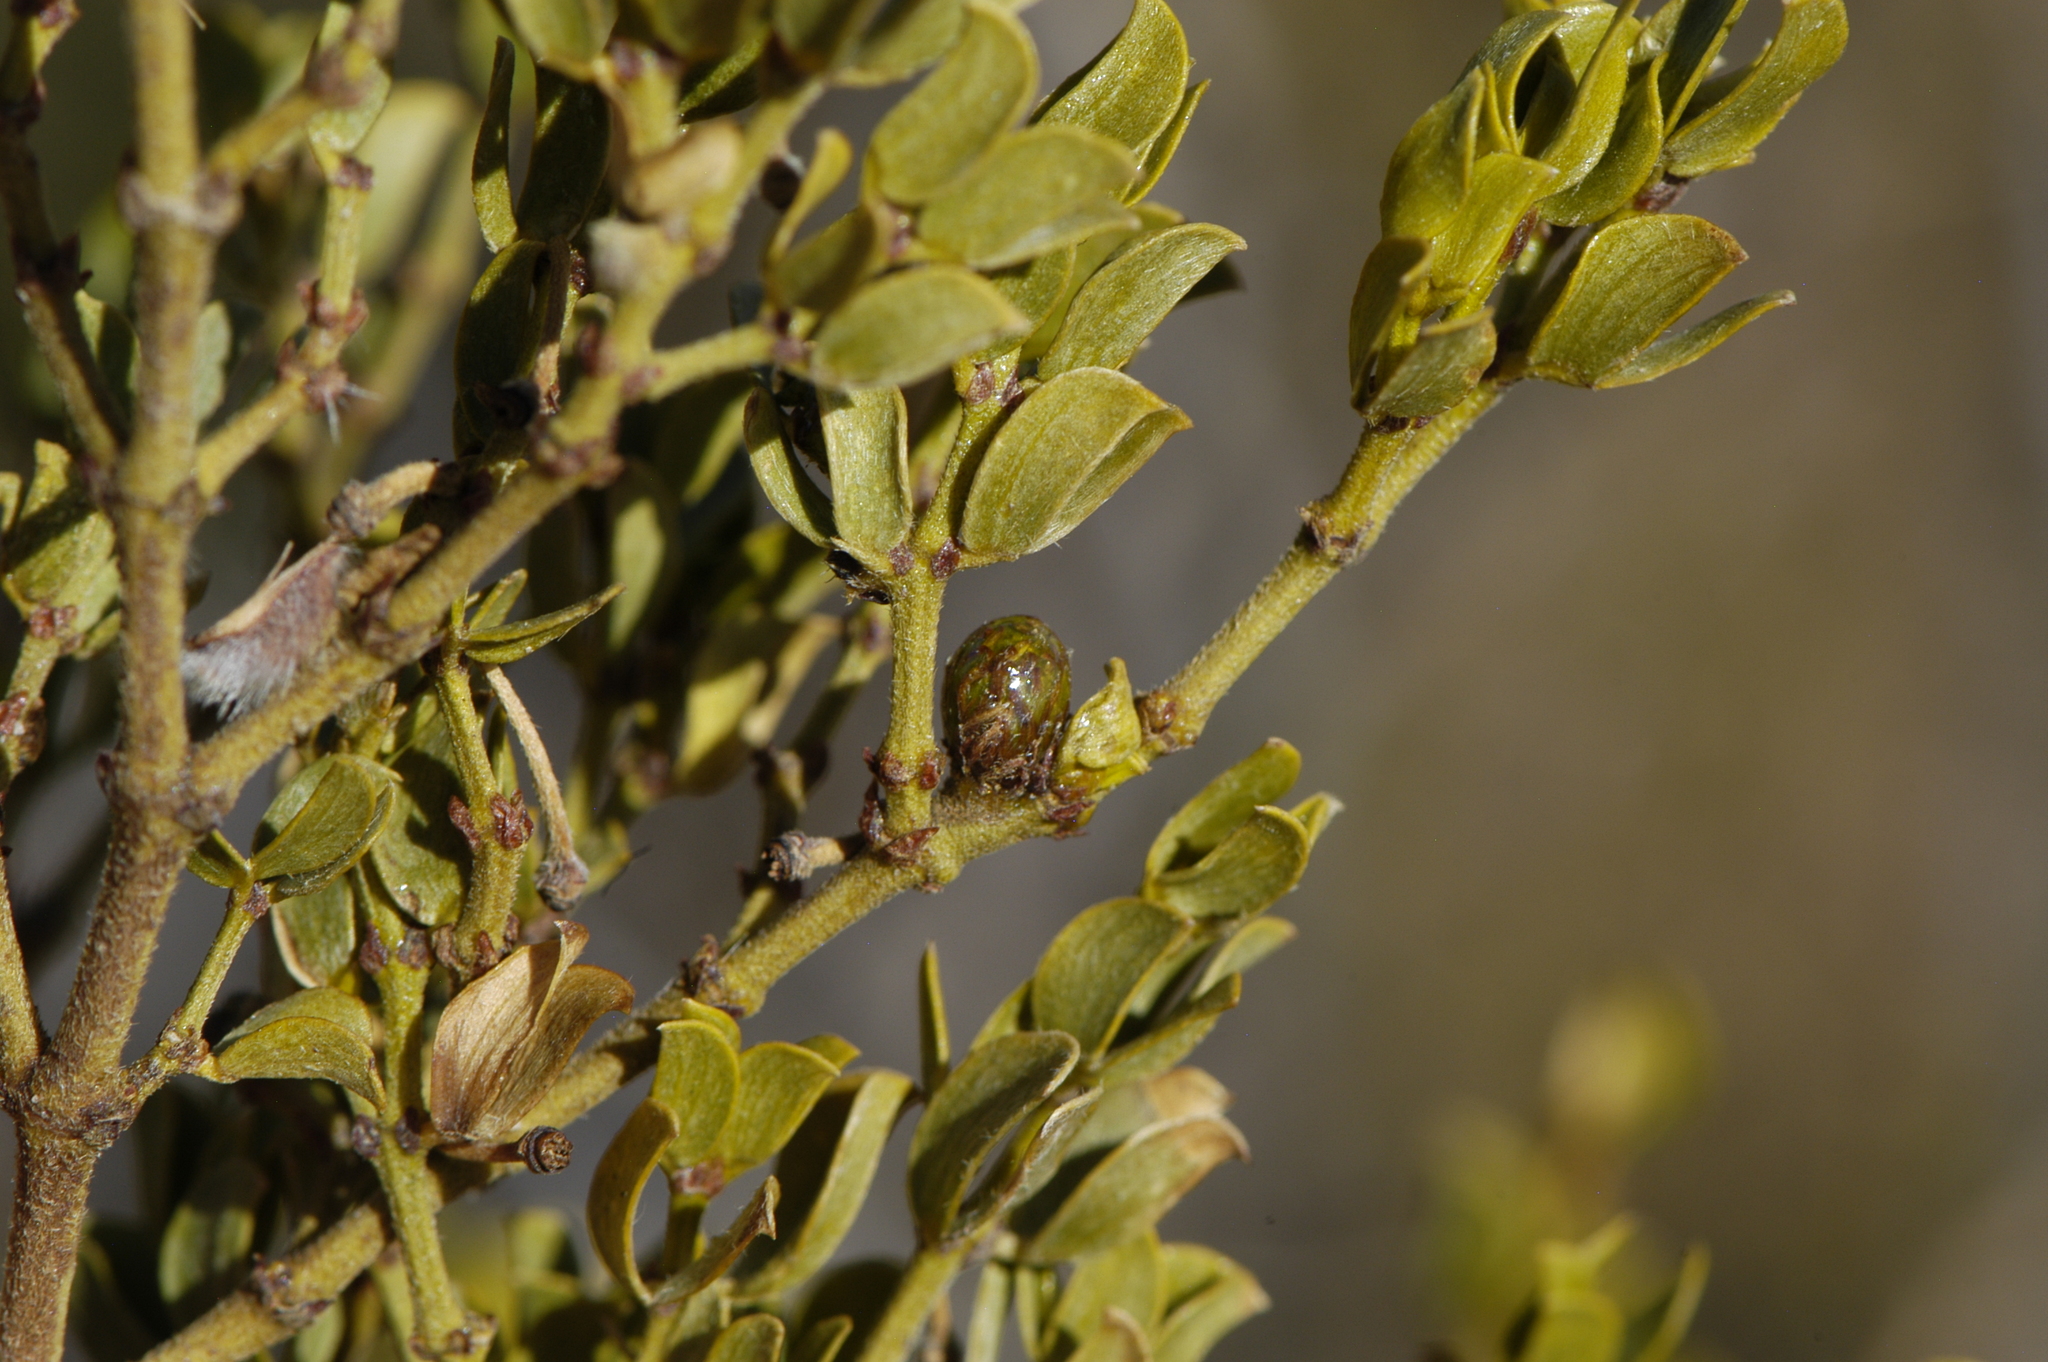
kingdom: Animalia
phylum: Arthropoda
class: Insecta
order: Diptera
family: Cecidomyiidae
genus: Asphondylia
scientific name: Asphondylia resinosa
